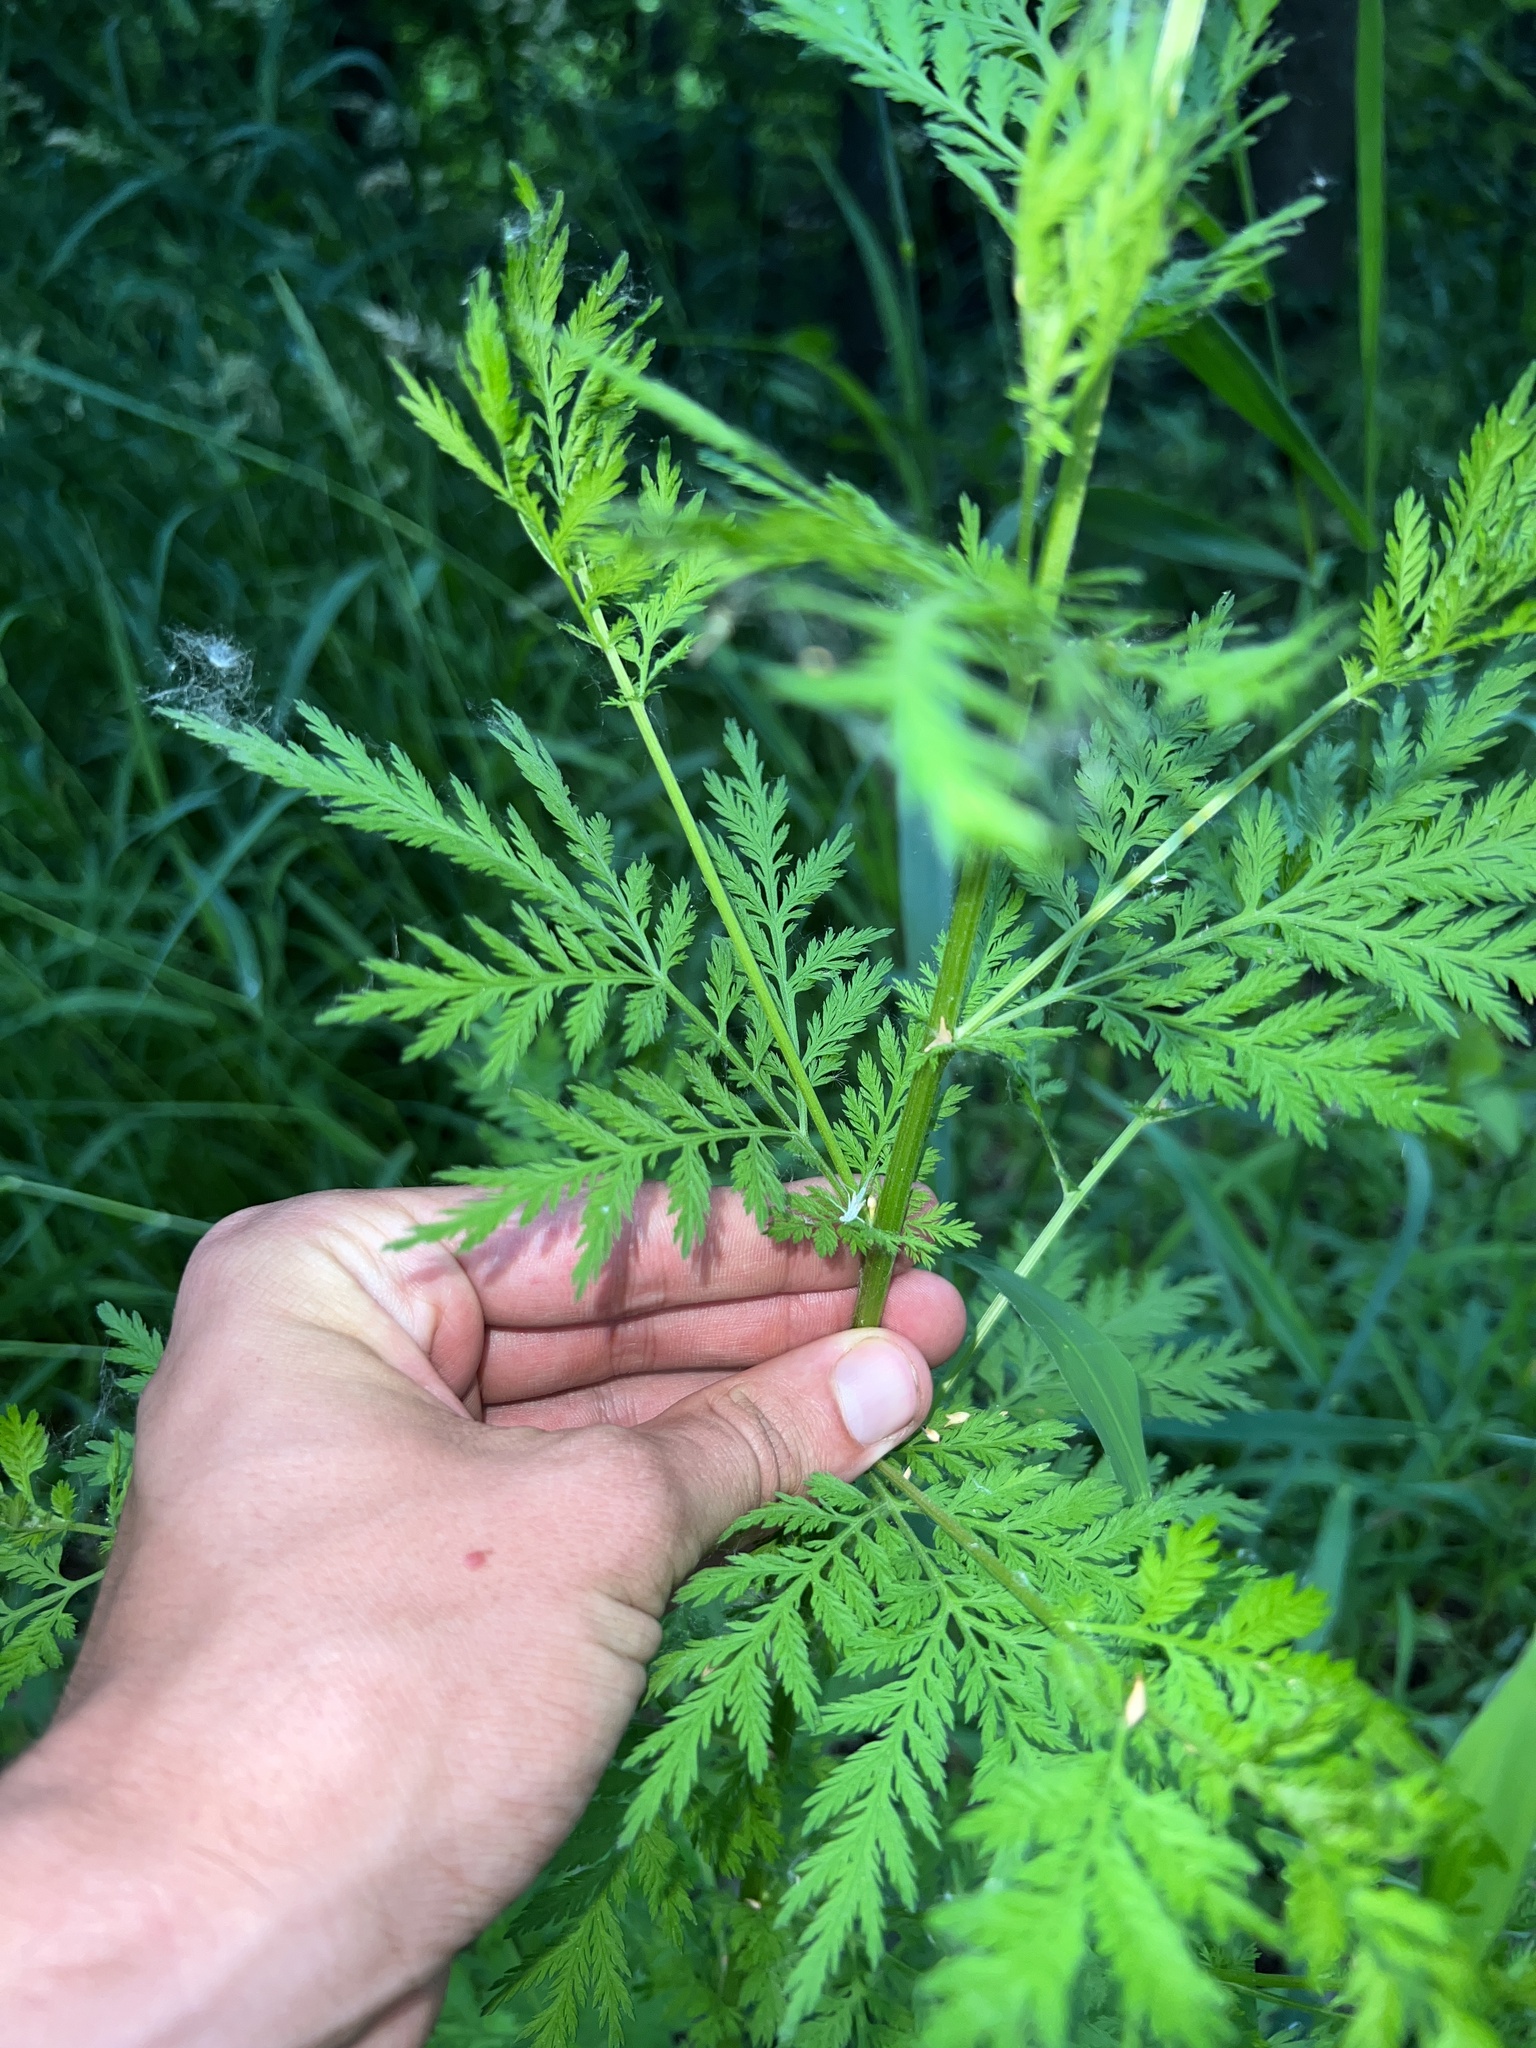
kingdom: Plantae
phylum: Tracheophyta
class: Magnoliopsida
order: Asterales
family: Asteraceae
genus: Artemisia
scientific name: Artemisia annua
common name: Sweet sagewort
